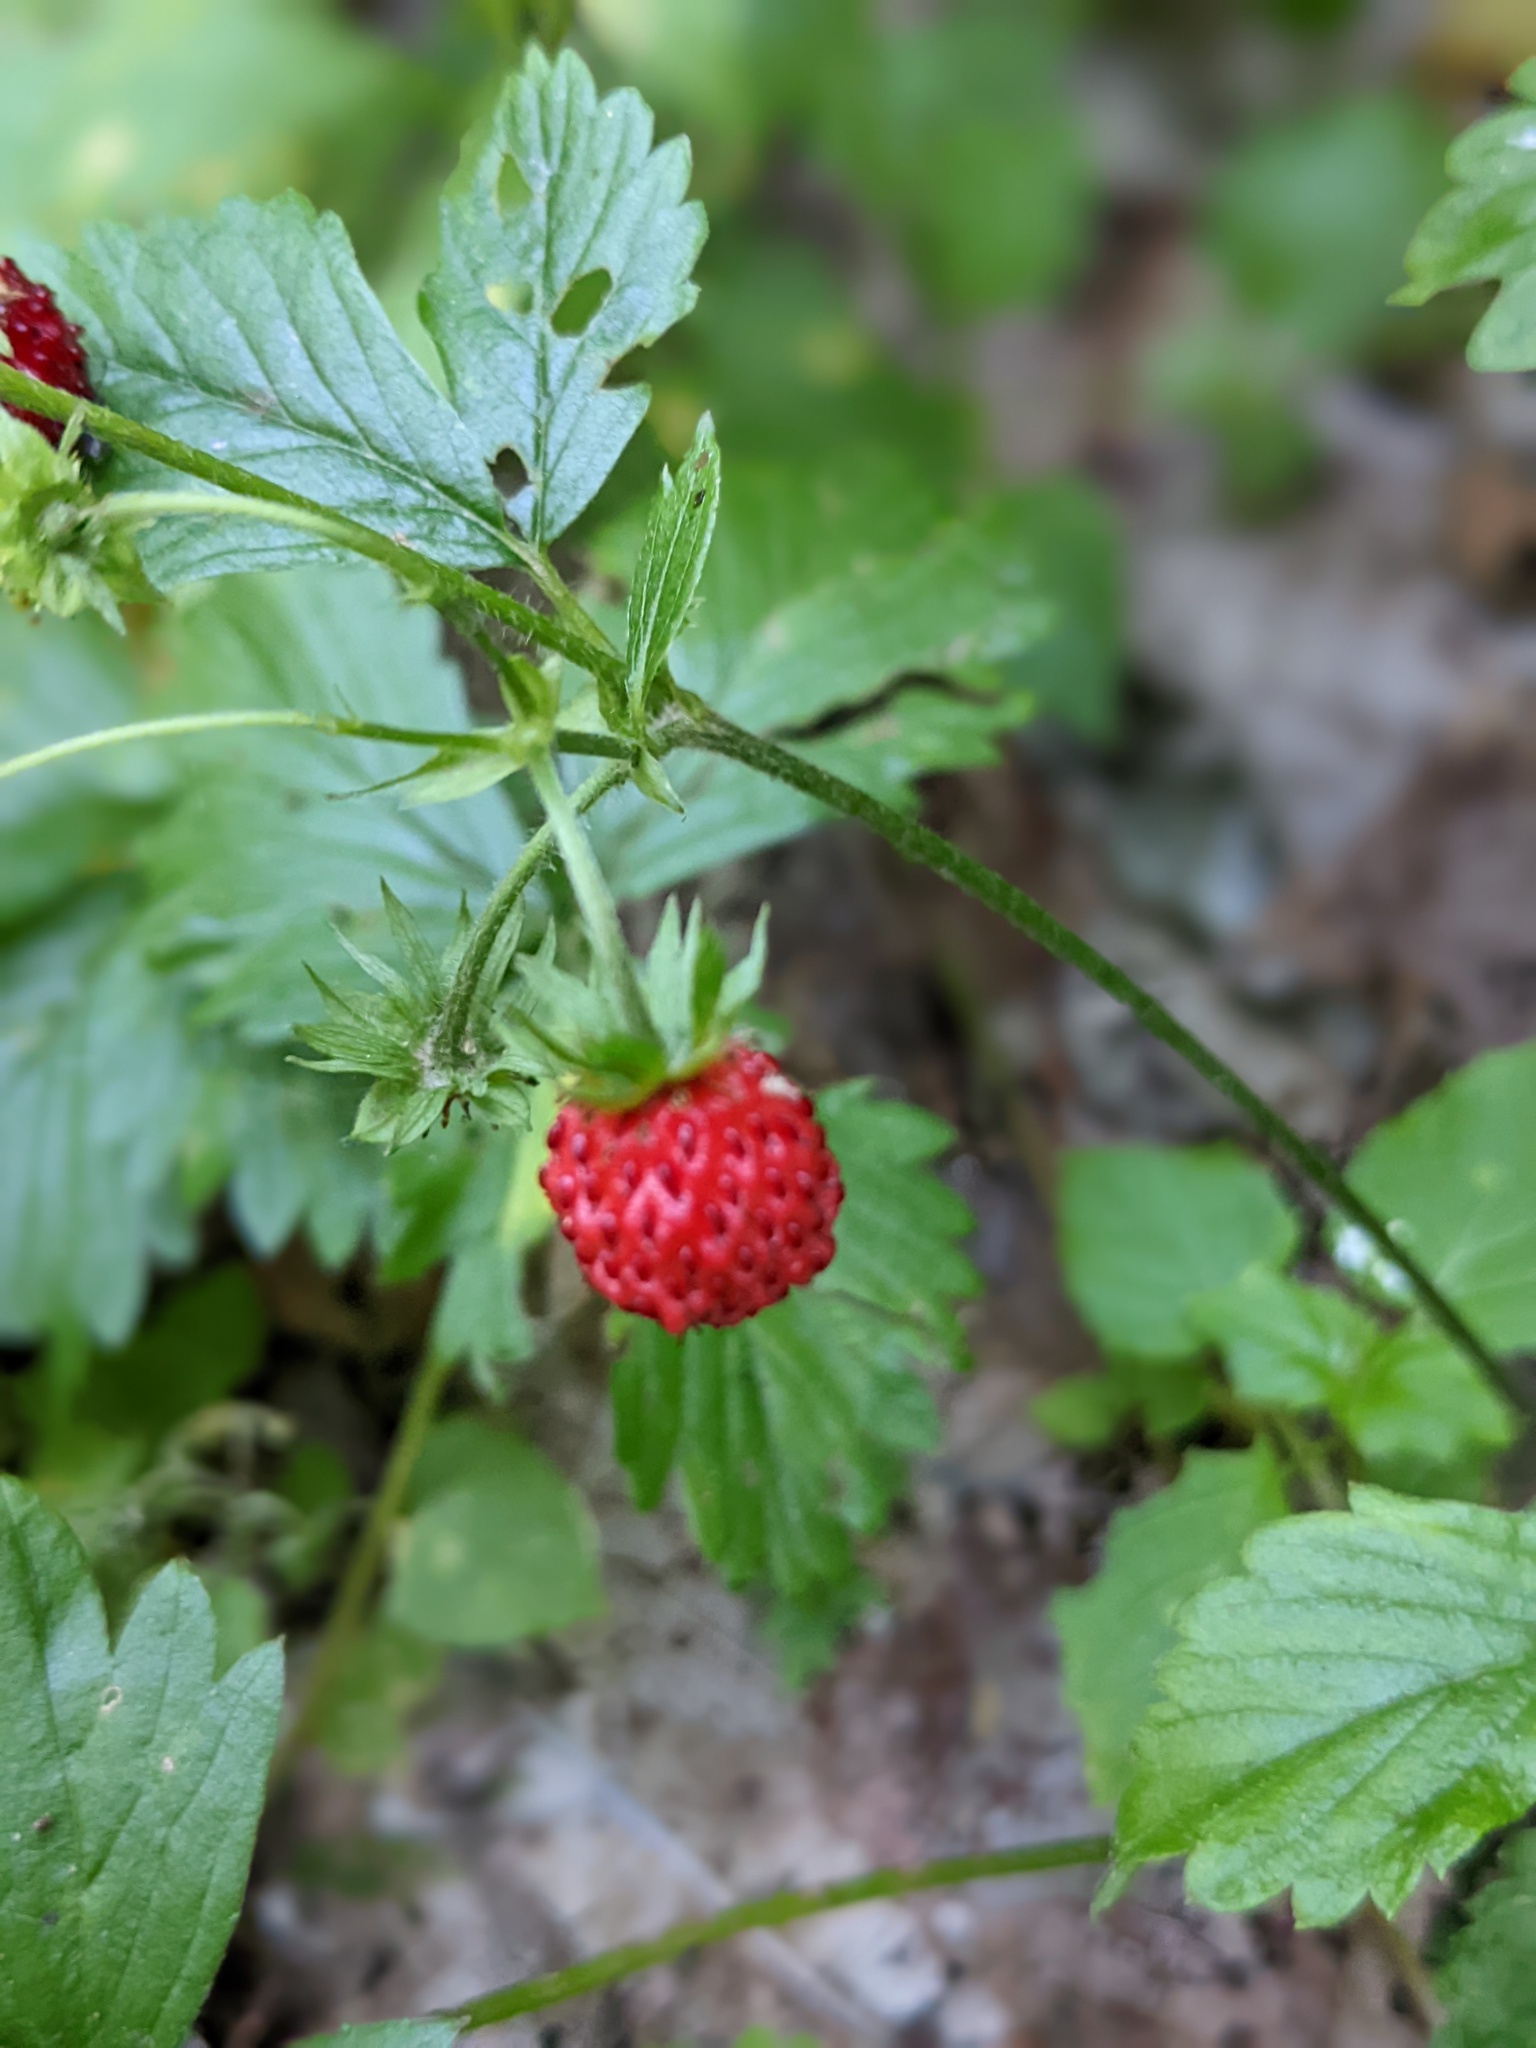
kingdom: Plantae
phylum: Tracheophyta
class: Magnoliopsida
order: Rosales
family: Rosaceae
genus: Fragaria
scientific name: Fragaria vesca
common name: Wild strawberry
